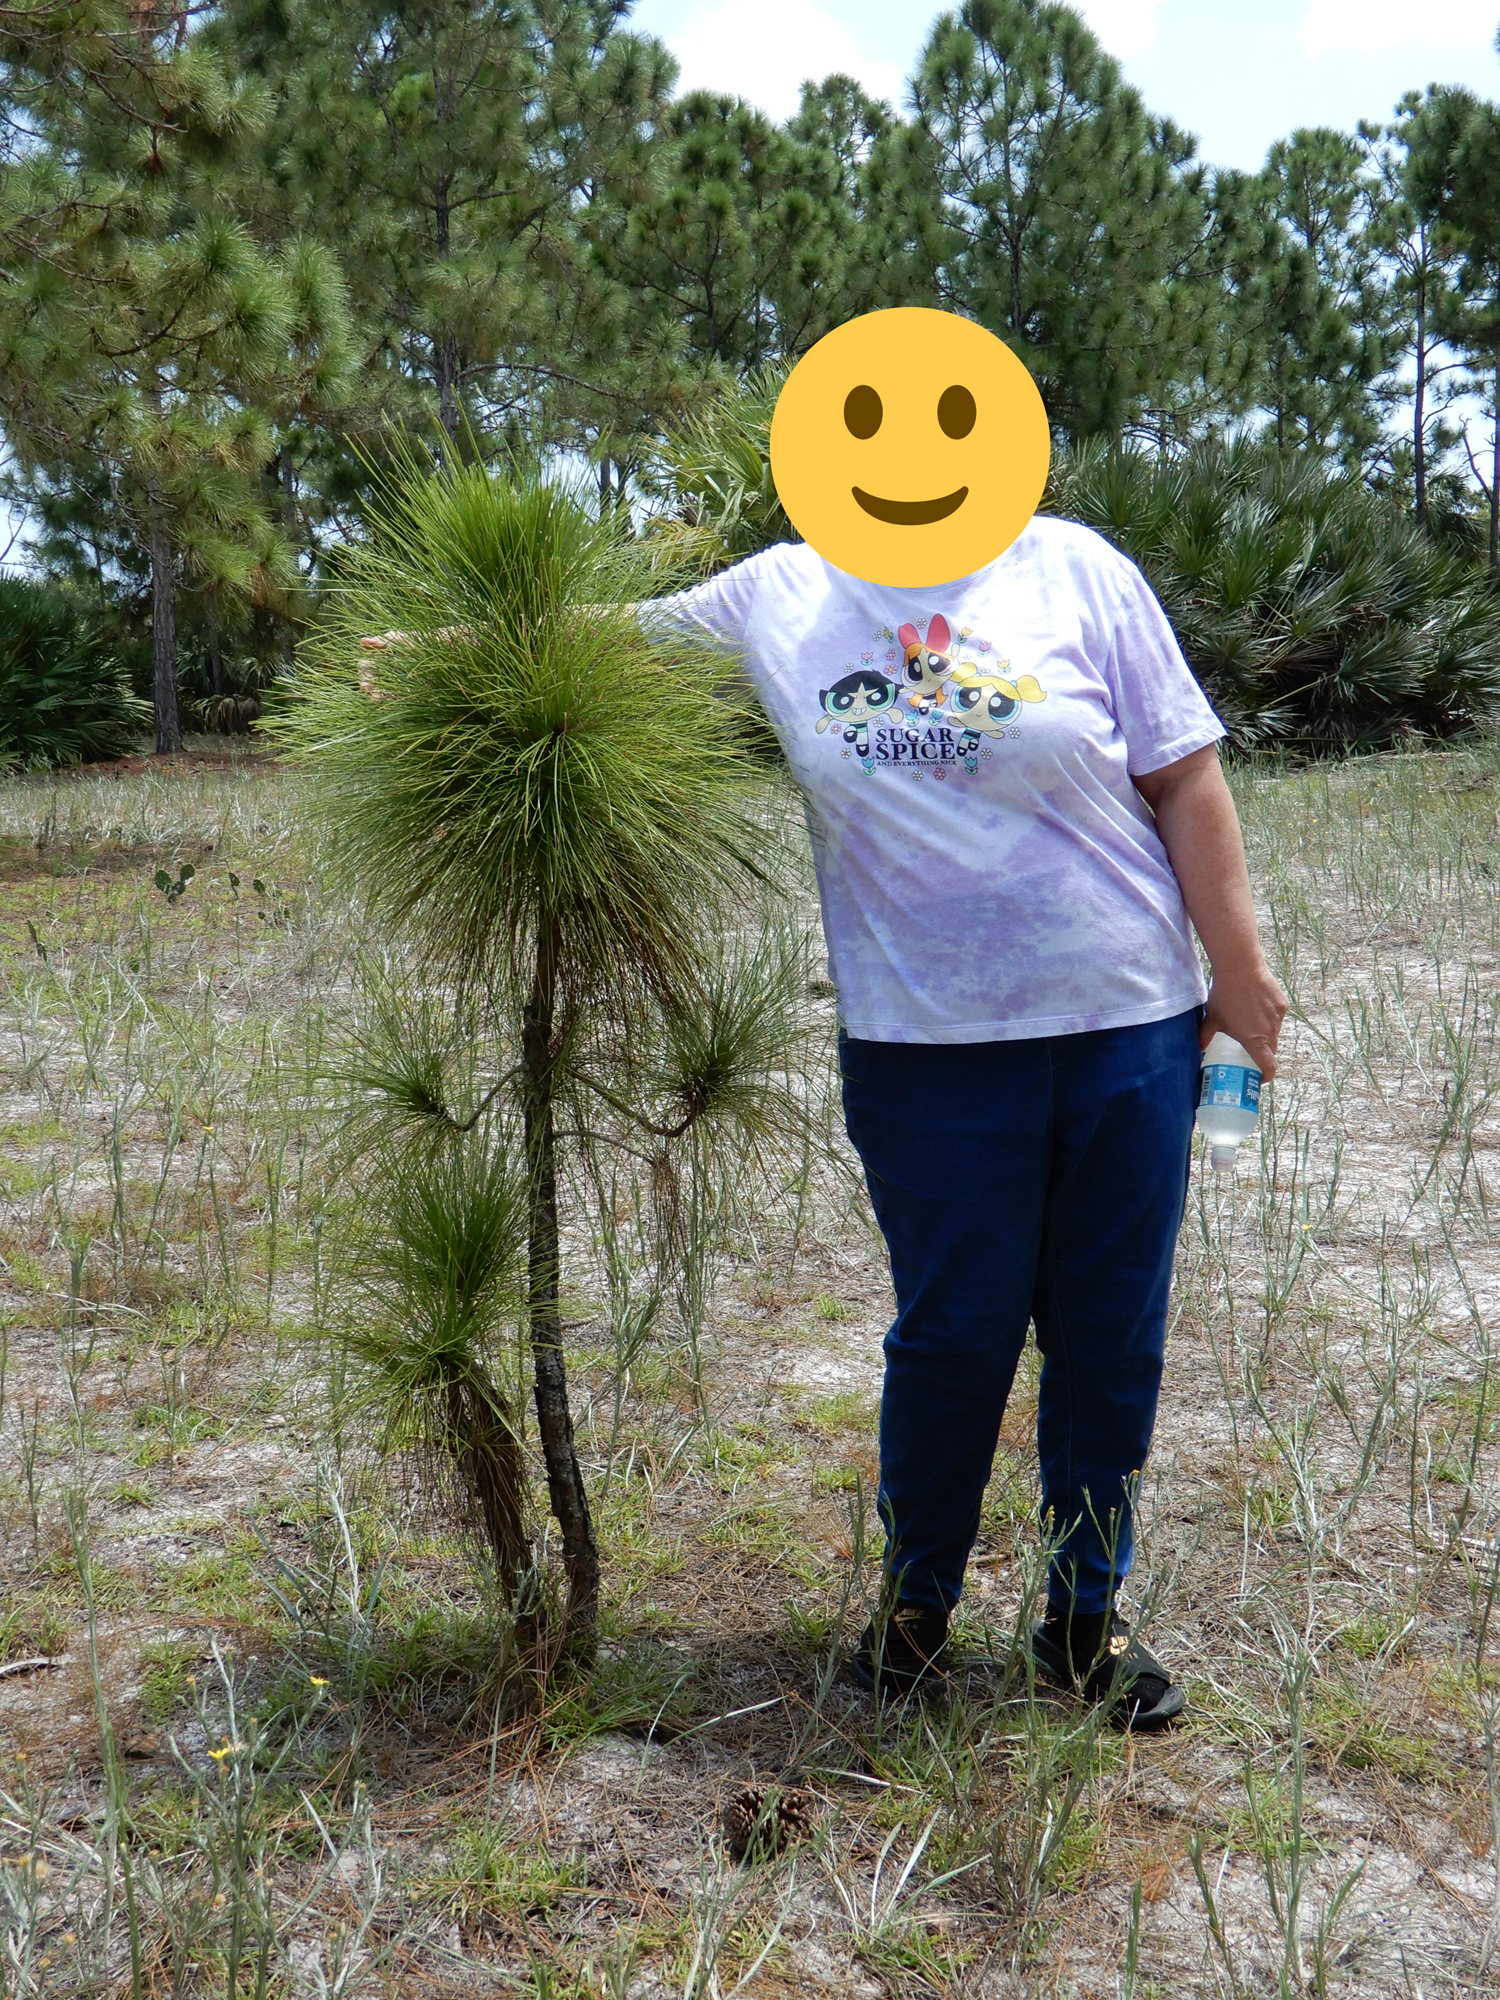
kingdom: Plantae
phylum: Tracheophyta
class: Pinopsida
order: Pinales
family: Pinaceae
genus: Pinus
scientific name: Pinus elliottii
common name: Slash pine
